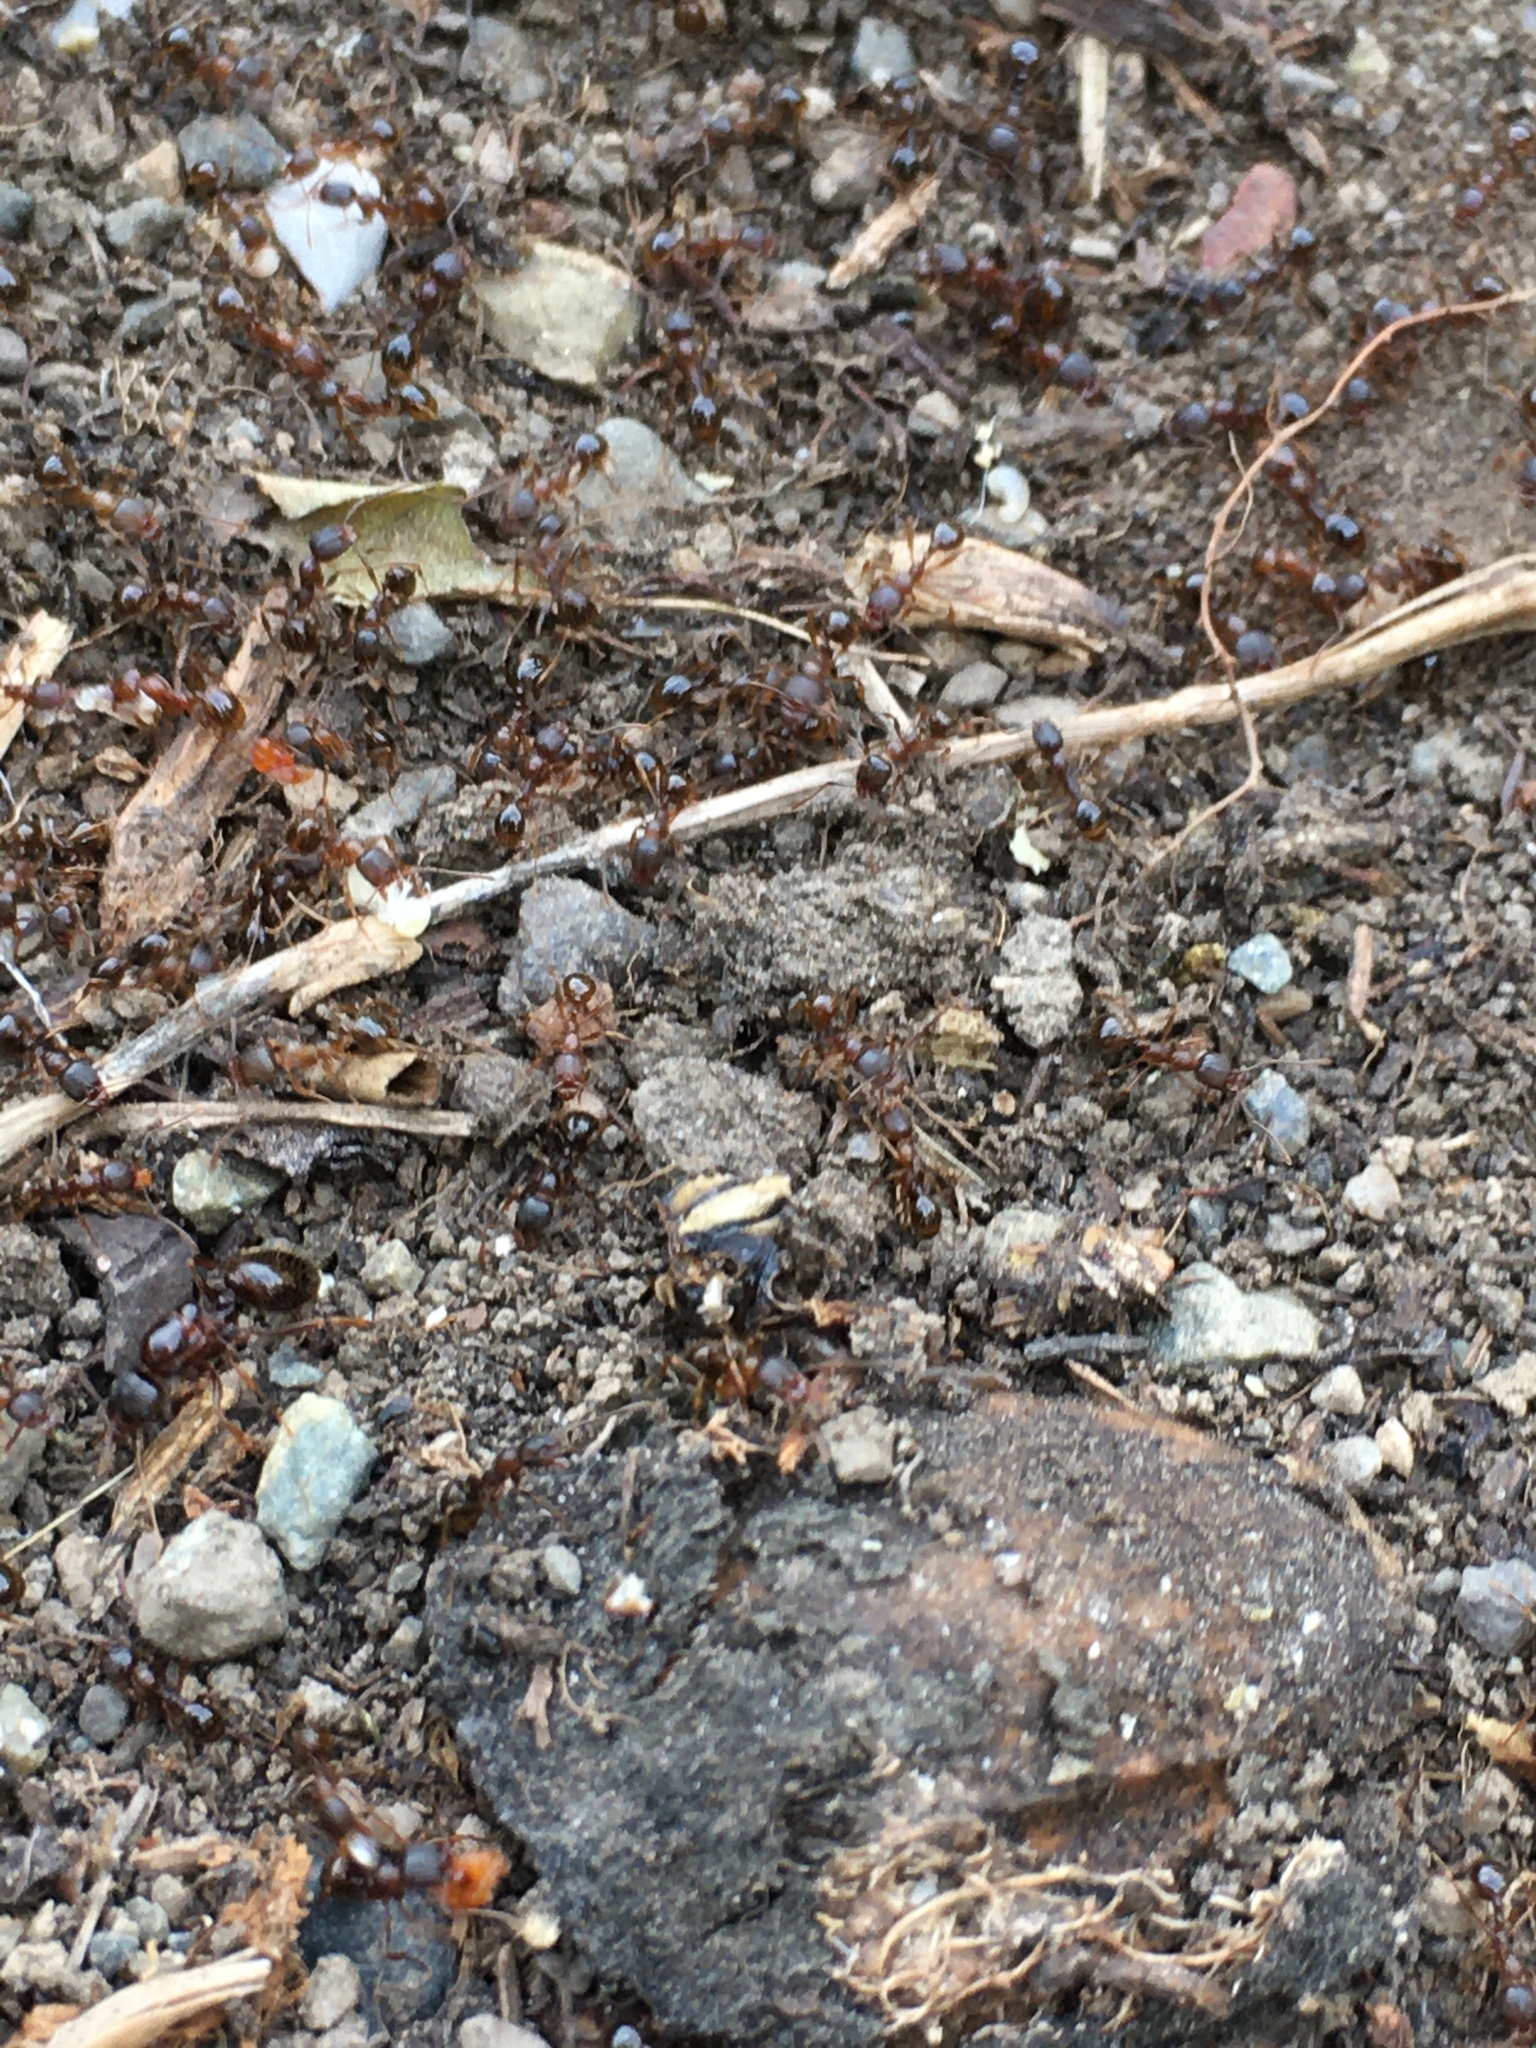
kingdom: Animalia
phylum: Arthropoda
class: Insecta
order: Hymenoptera
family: Formicidae
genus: Aphaenogaster
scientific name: Aphaenogaster occidentalis
